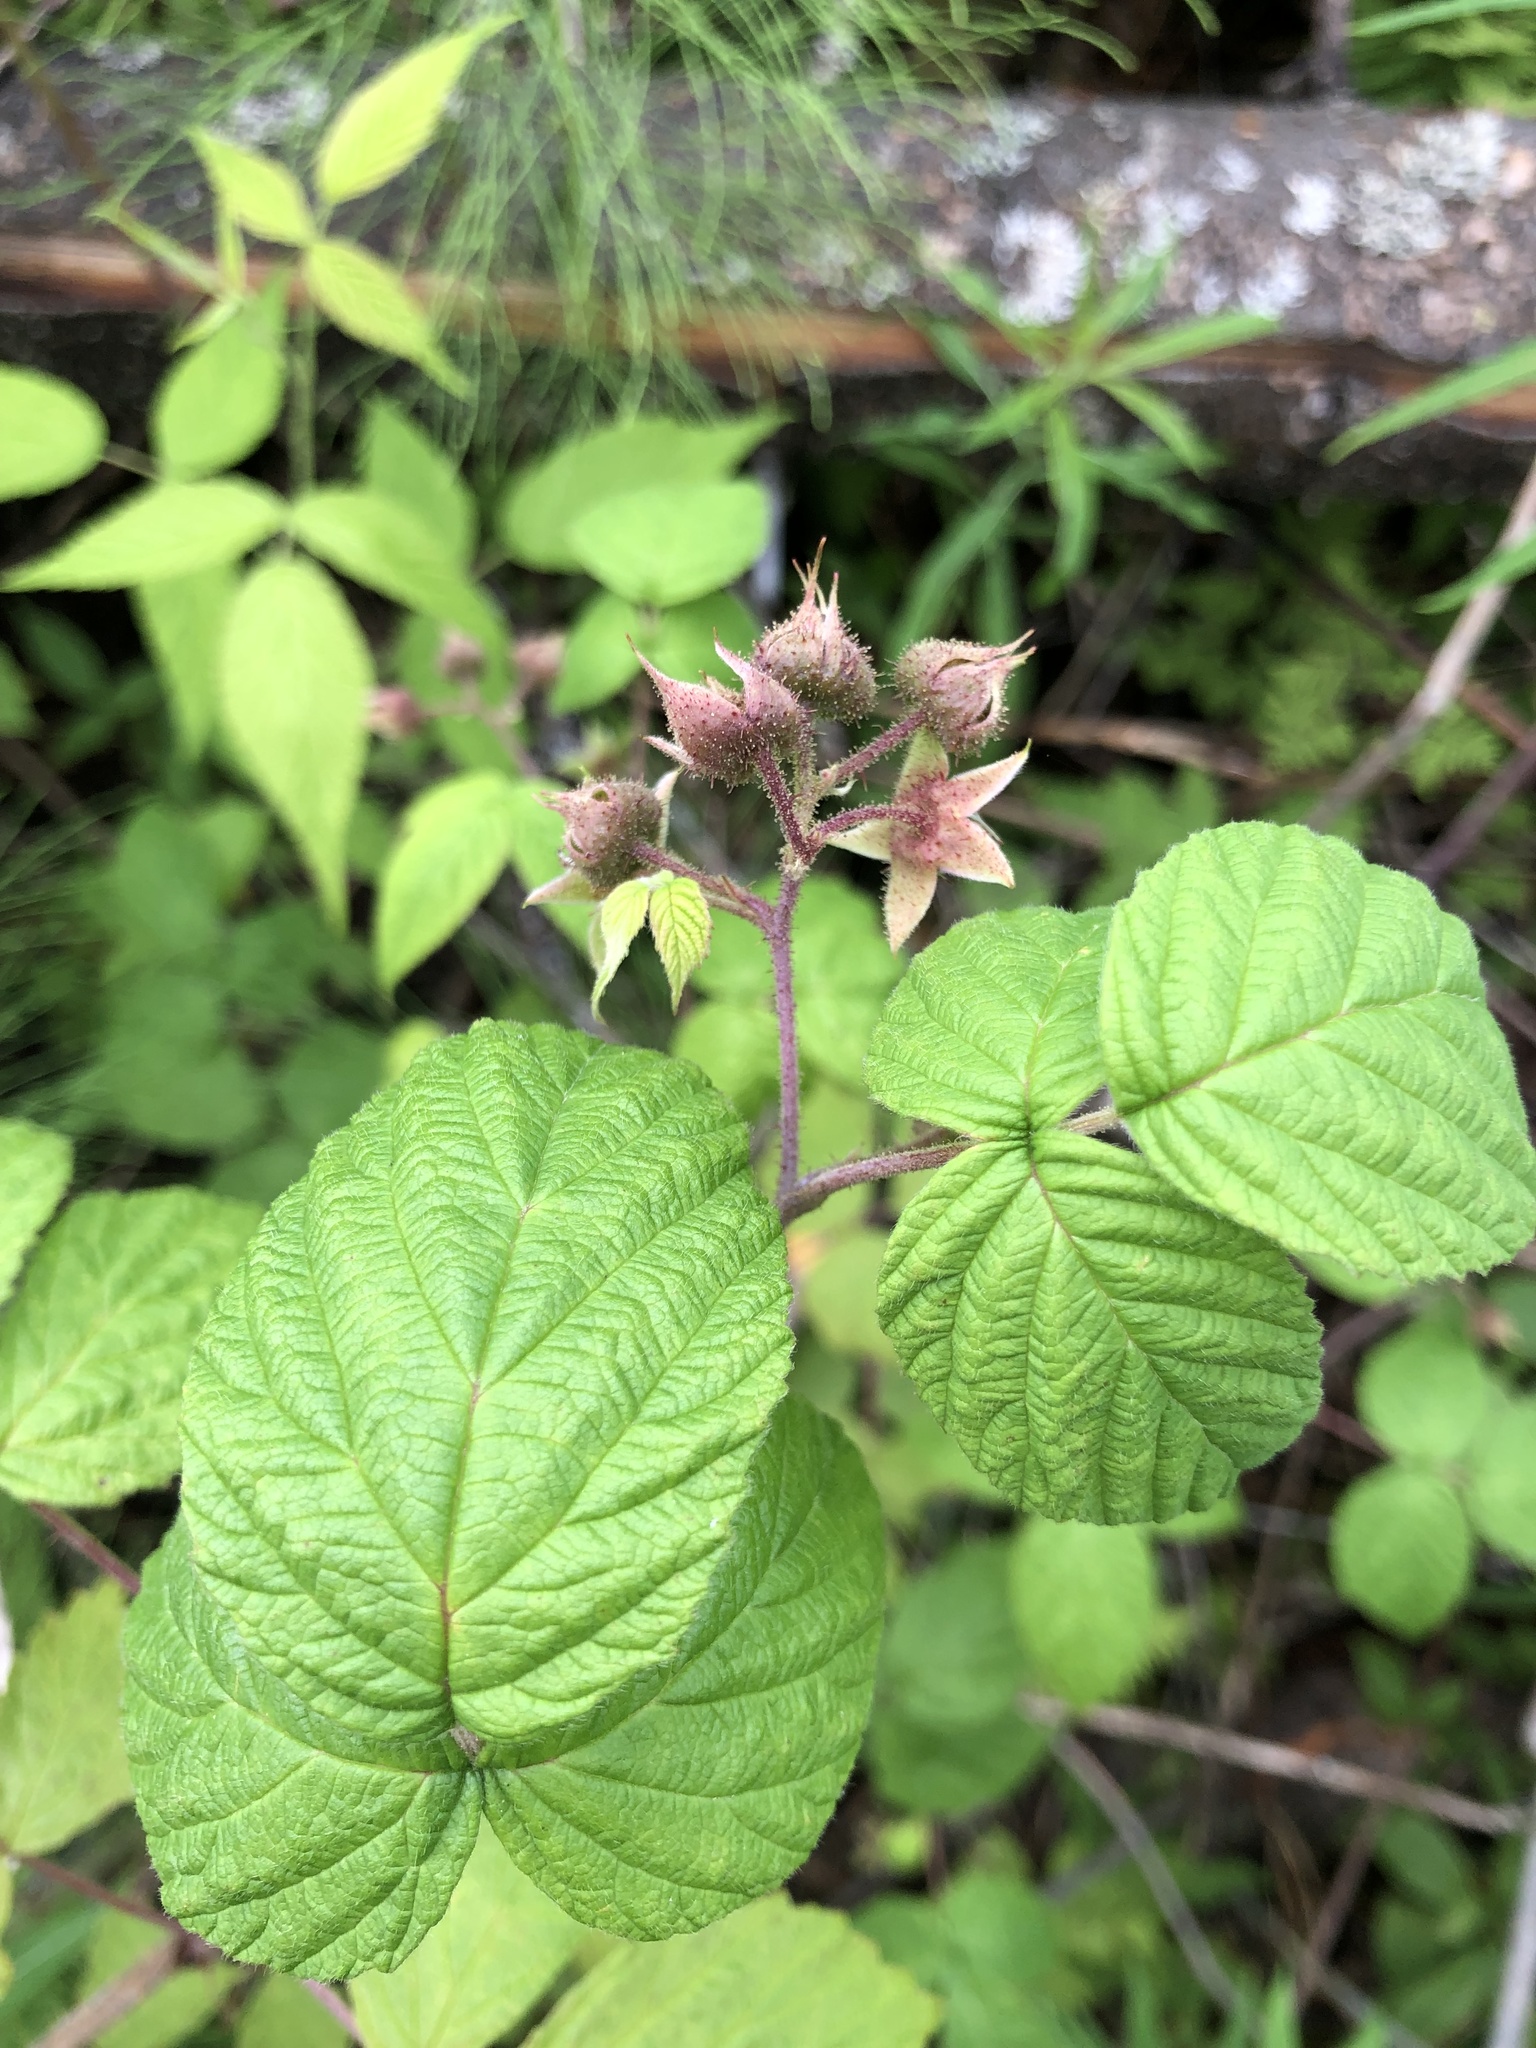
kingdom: Plantae
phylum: Tracheophyta
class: Magnoliopsida
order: Rosales
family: Rosaceae
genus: Rubus
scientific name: Rubus sachalinensis
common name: Red raspberry
